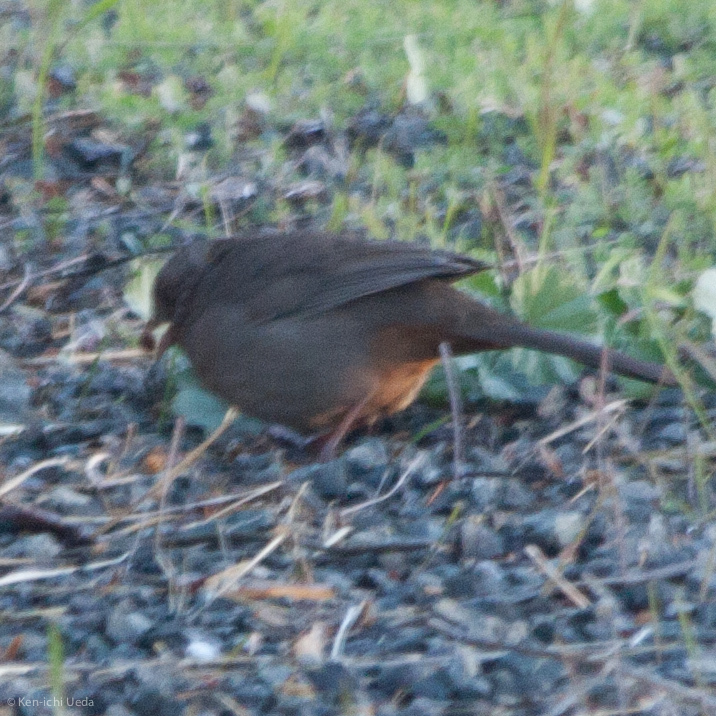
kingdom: Animalia
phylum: Chordata
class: Aves
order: Passeriformes
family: Passerellidae
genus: Melozone
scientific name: Melozone crissalis
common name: California towhee
